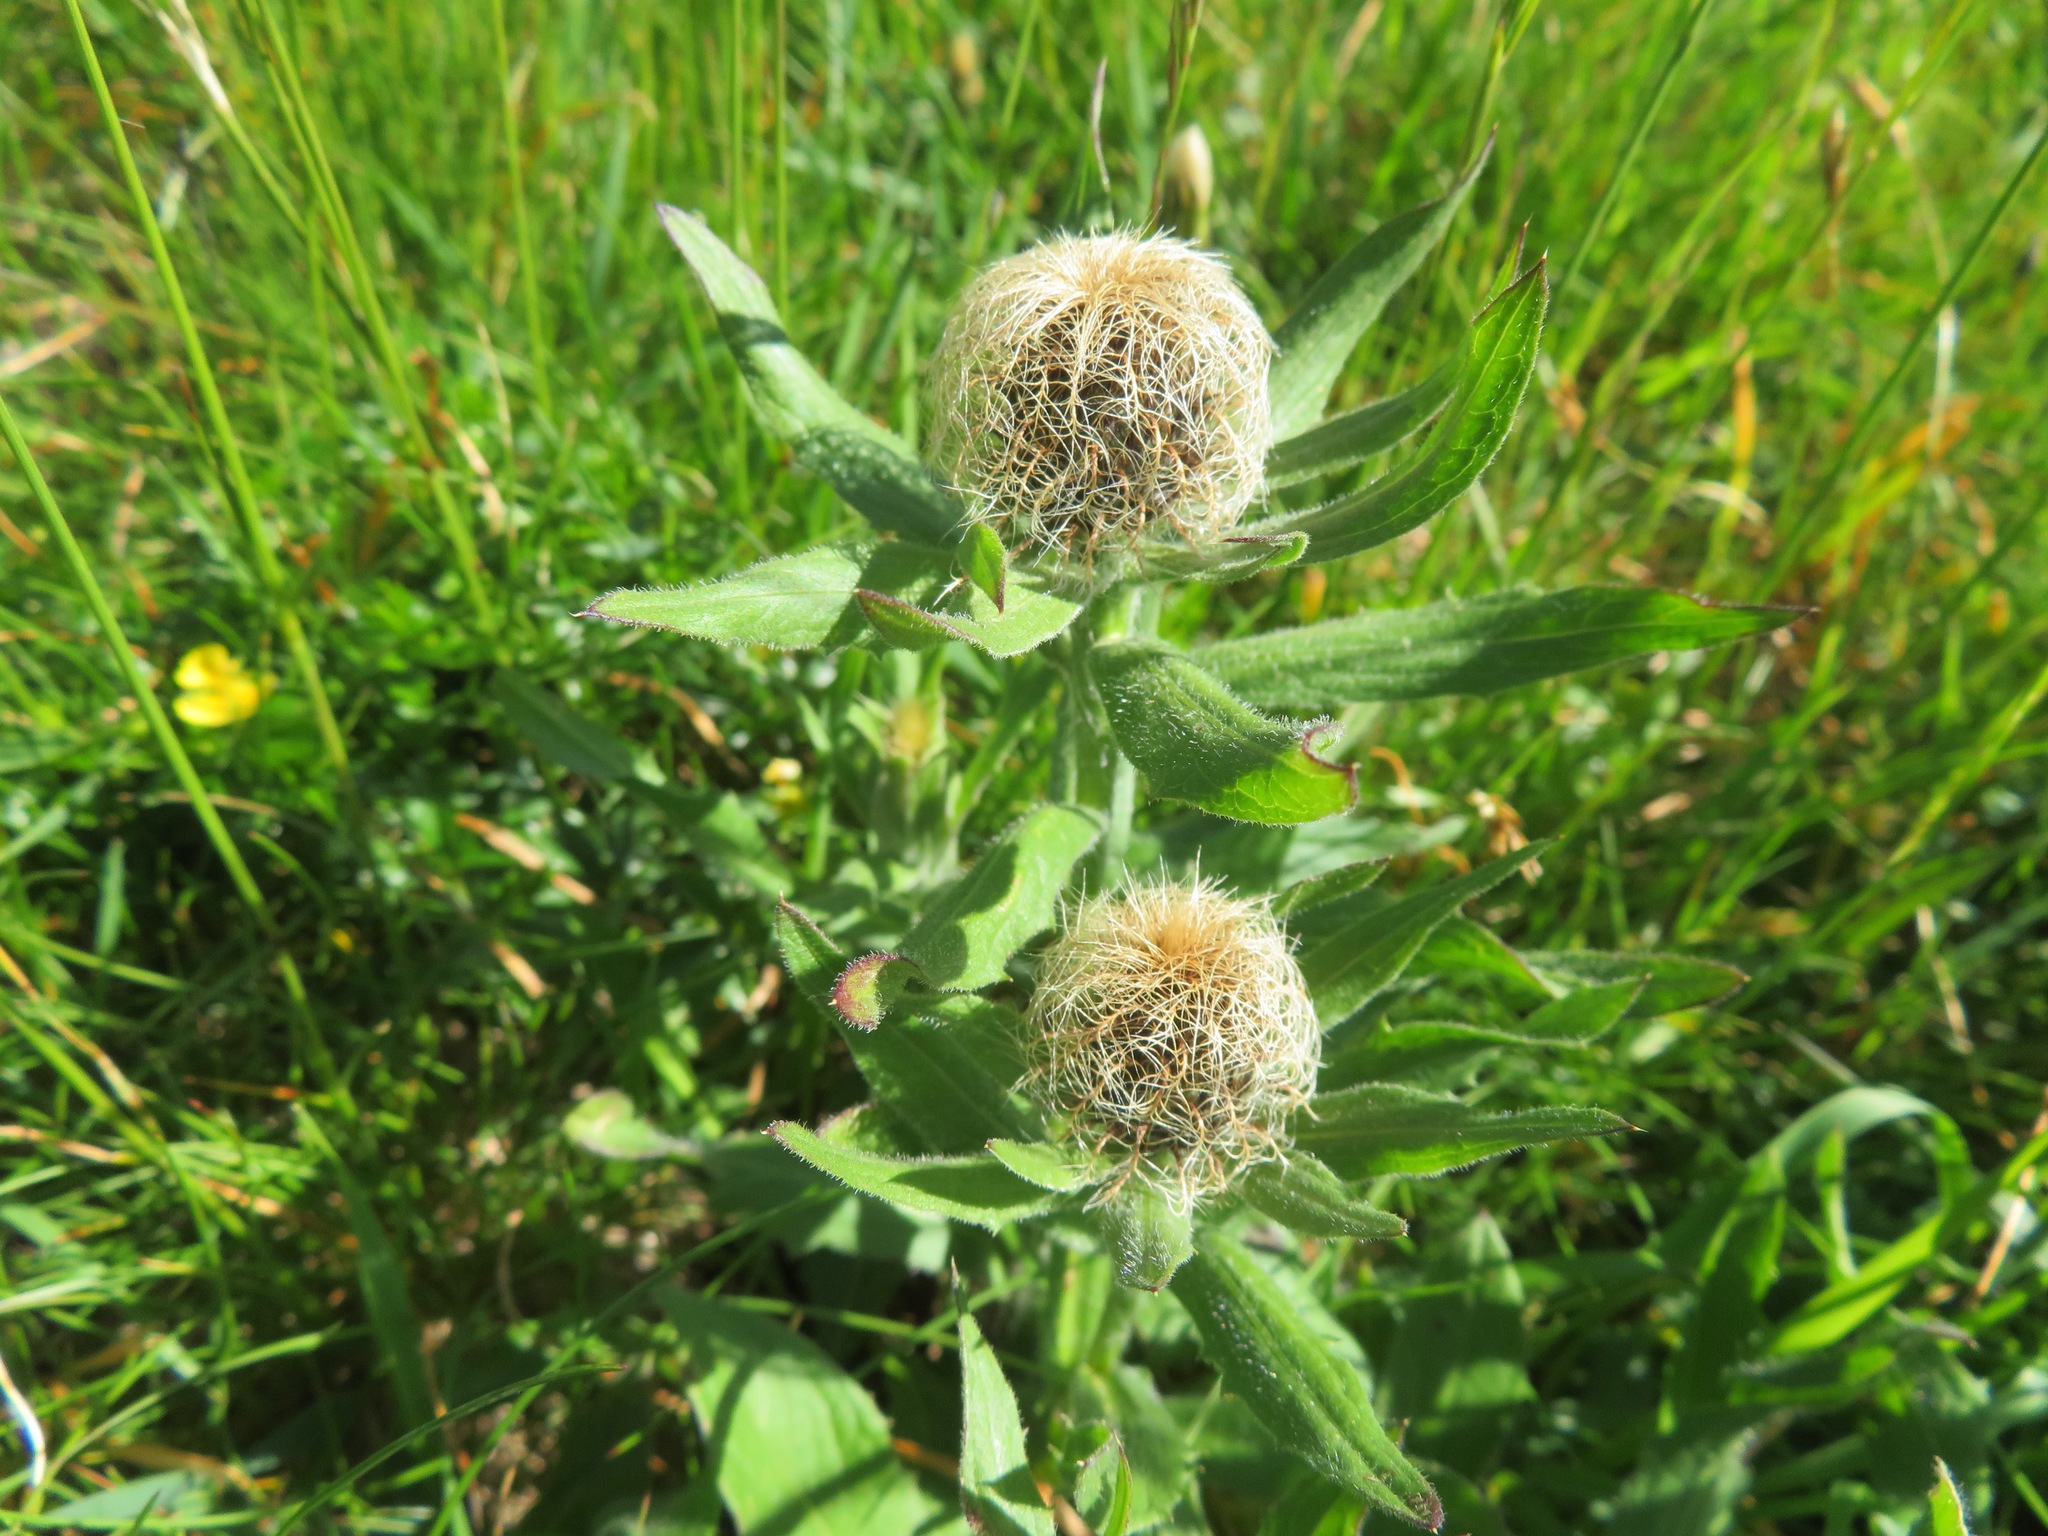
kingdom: Plantae
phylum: Tracheophyta
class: Magnoliopsida
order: Asterales
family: Asteraceae
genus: Centaurea
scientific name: Centaurea nervosa
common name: Singleflower knapweed
